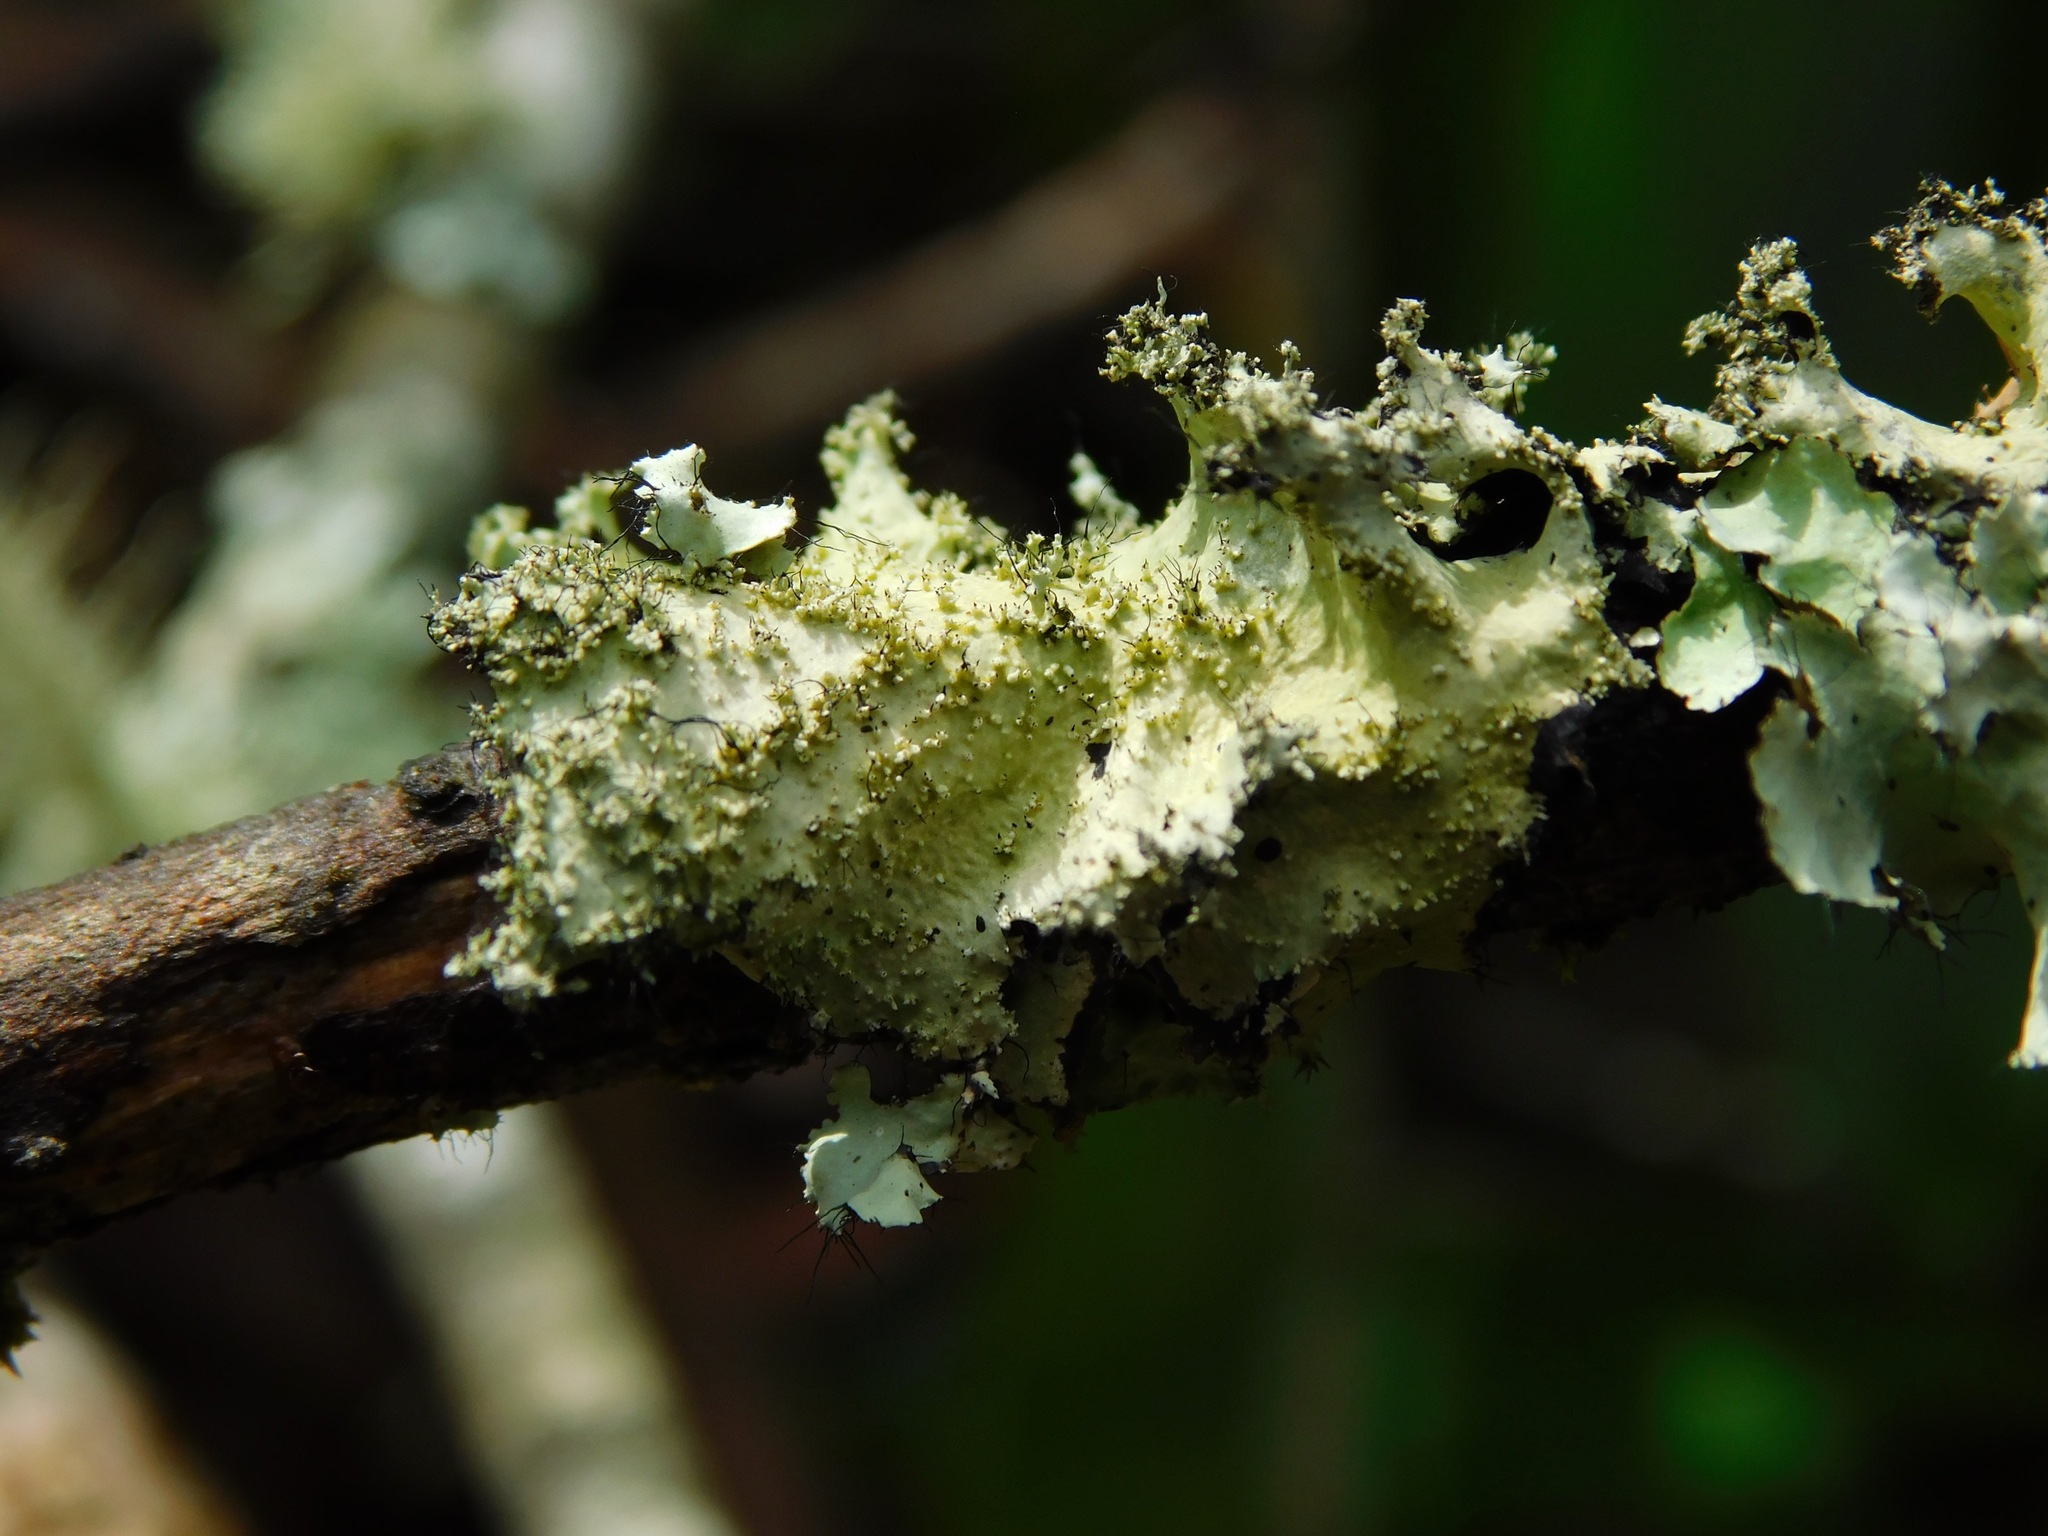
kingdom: Fungi
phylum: Ascomycota
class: Lecanoromycetes
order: Lecanorales
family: Parmeliaceae
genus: Hypotrachyna
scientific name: Hypotrachyna horrescens
